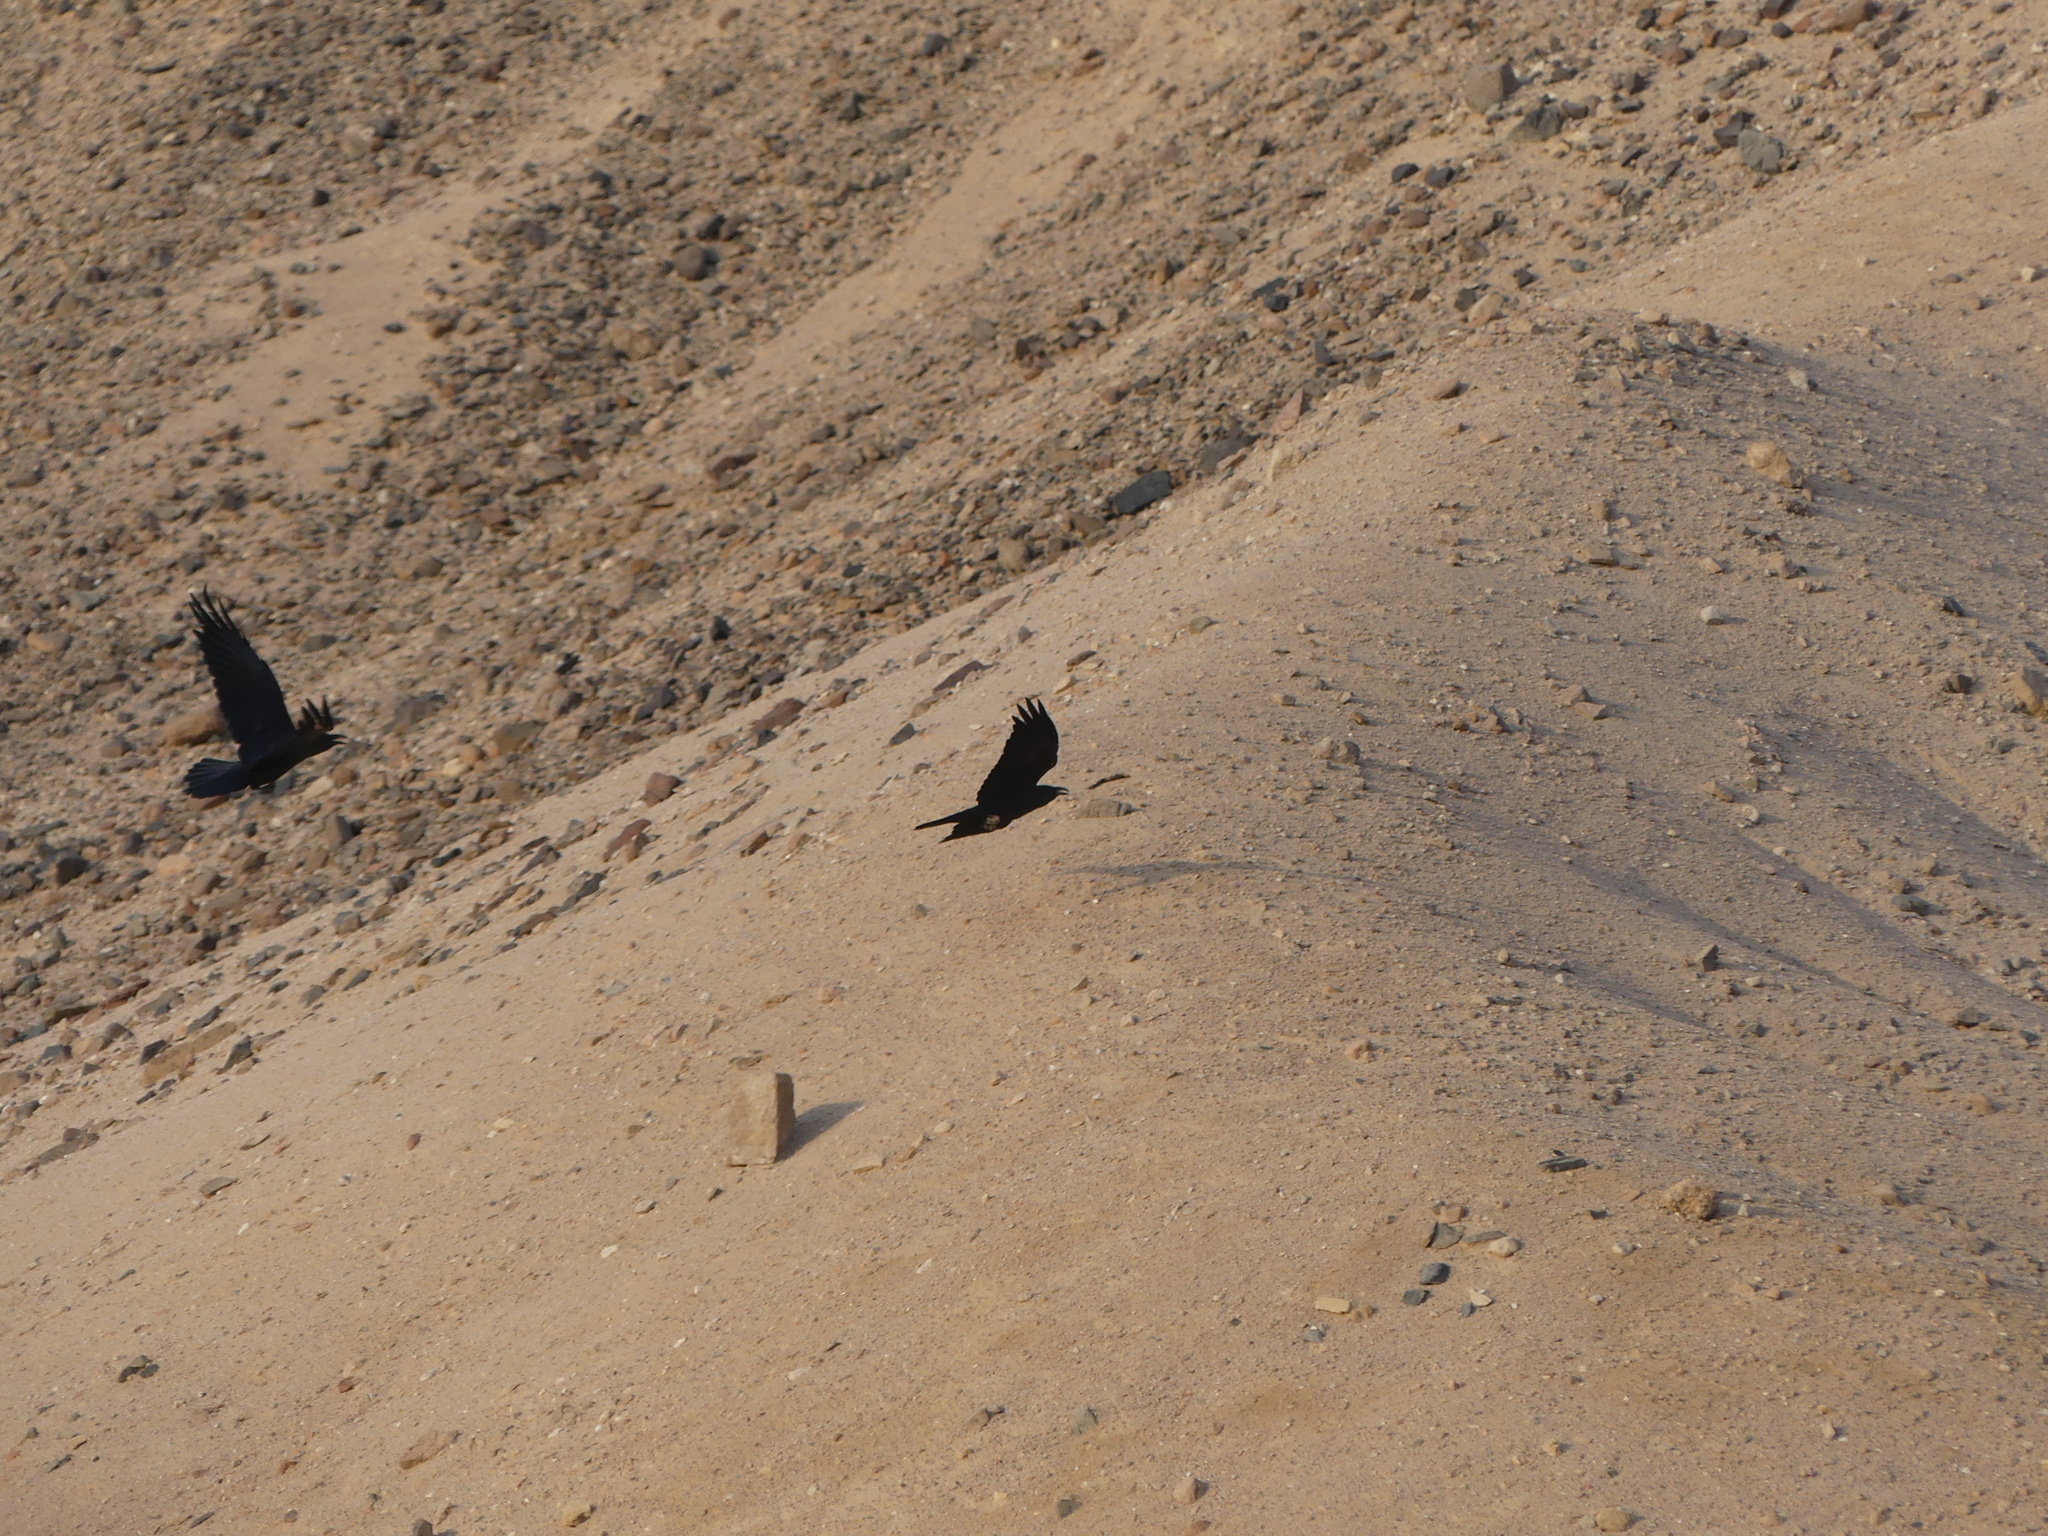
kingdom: Animalia
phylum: Chordata
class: Aves
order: Passeriformes
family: Corvidae
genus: Corvus
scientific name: Corvus ruficollis
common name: Brown-necked raven
